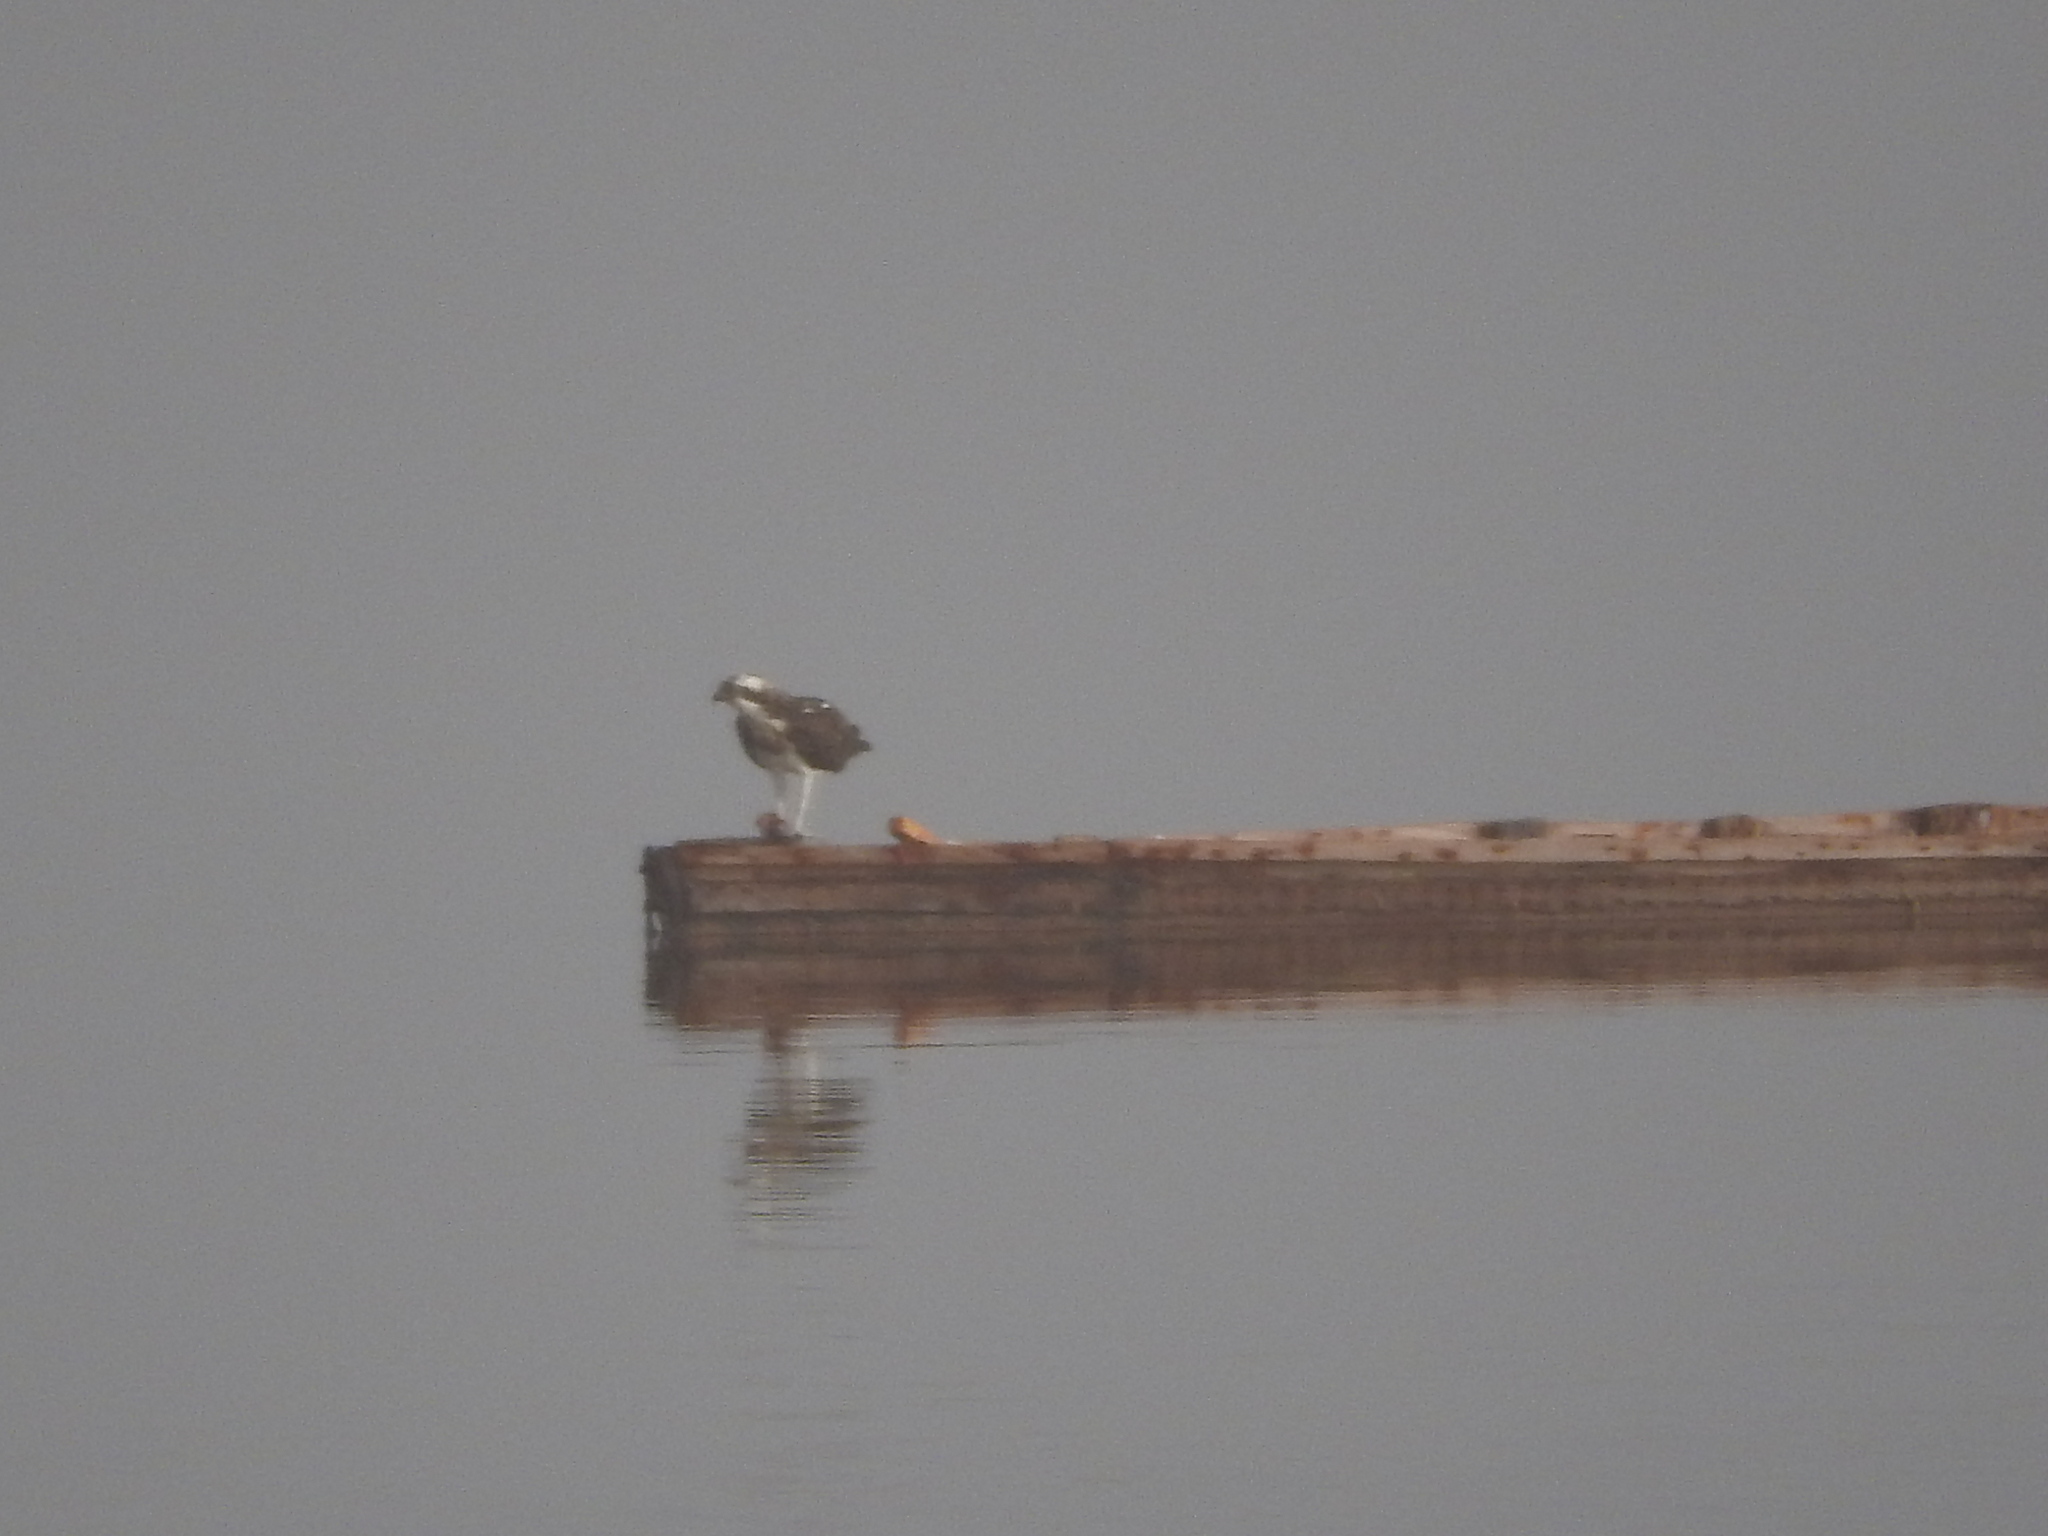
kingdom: Animalia
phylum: Chordata
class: Aves
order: Accipitriformes
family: Pandionidae
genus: Pandion
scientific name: Pandion haliaetus
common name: Osprey
